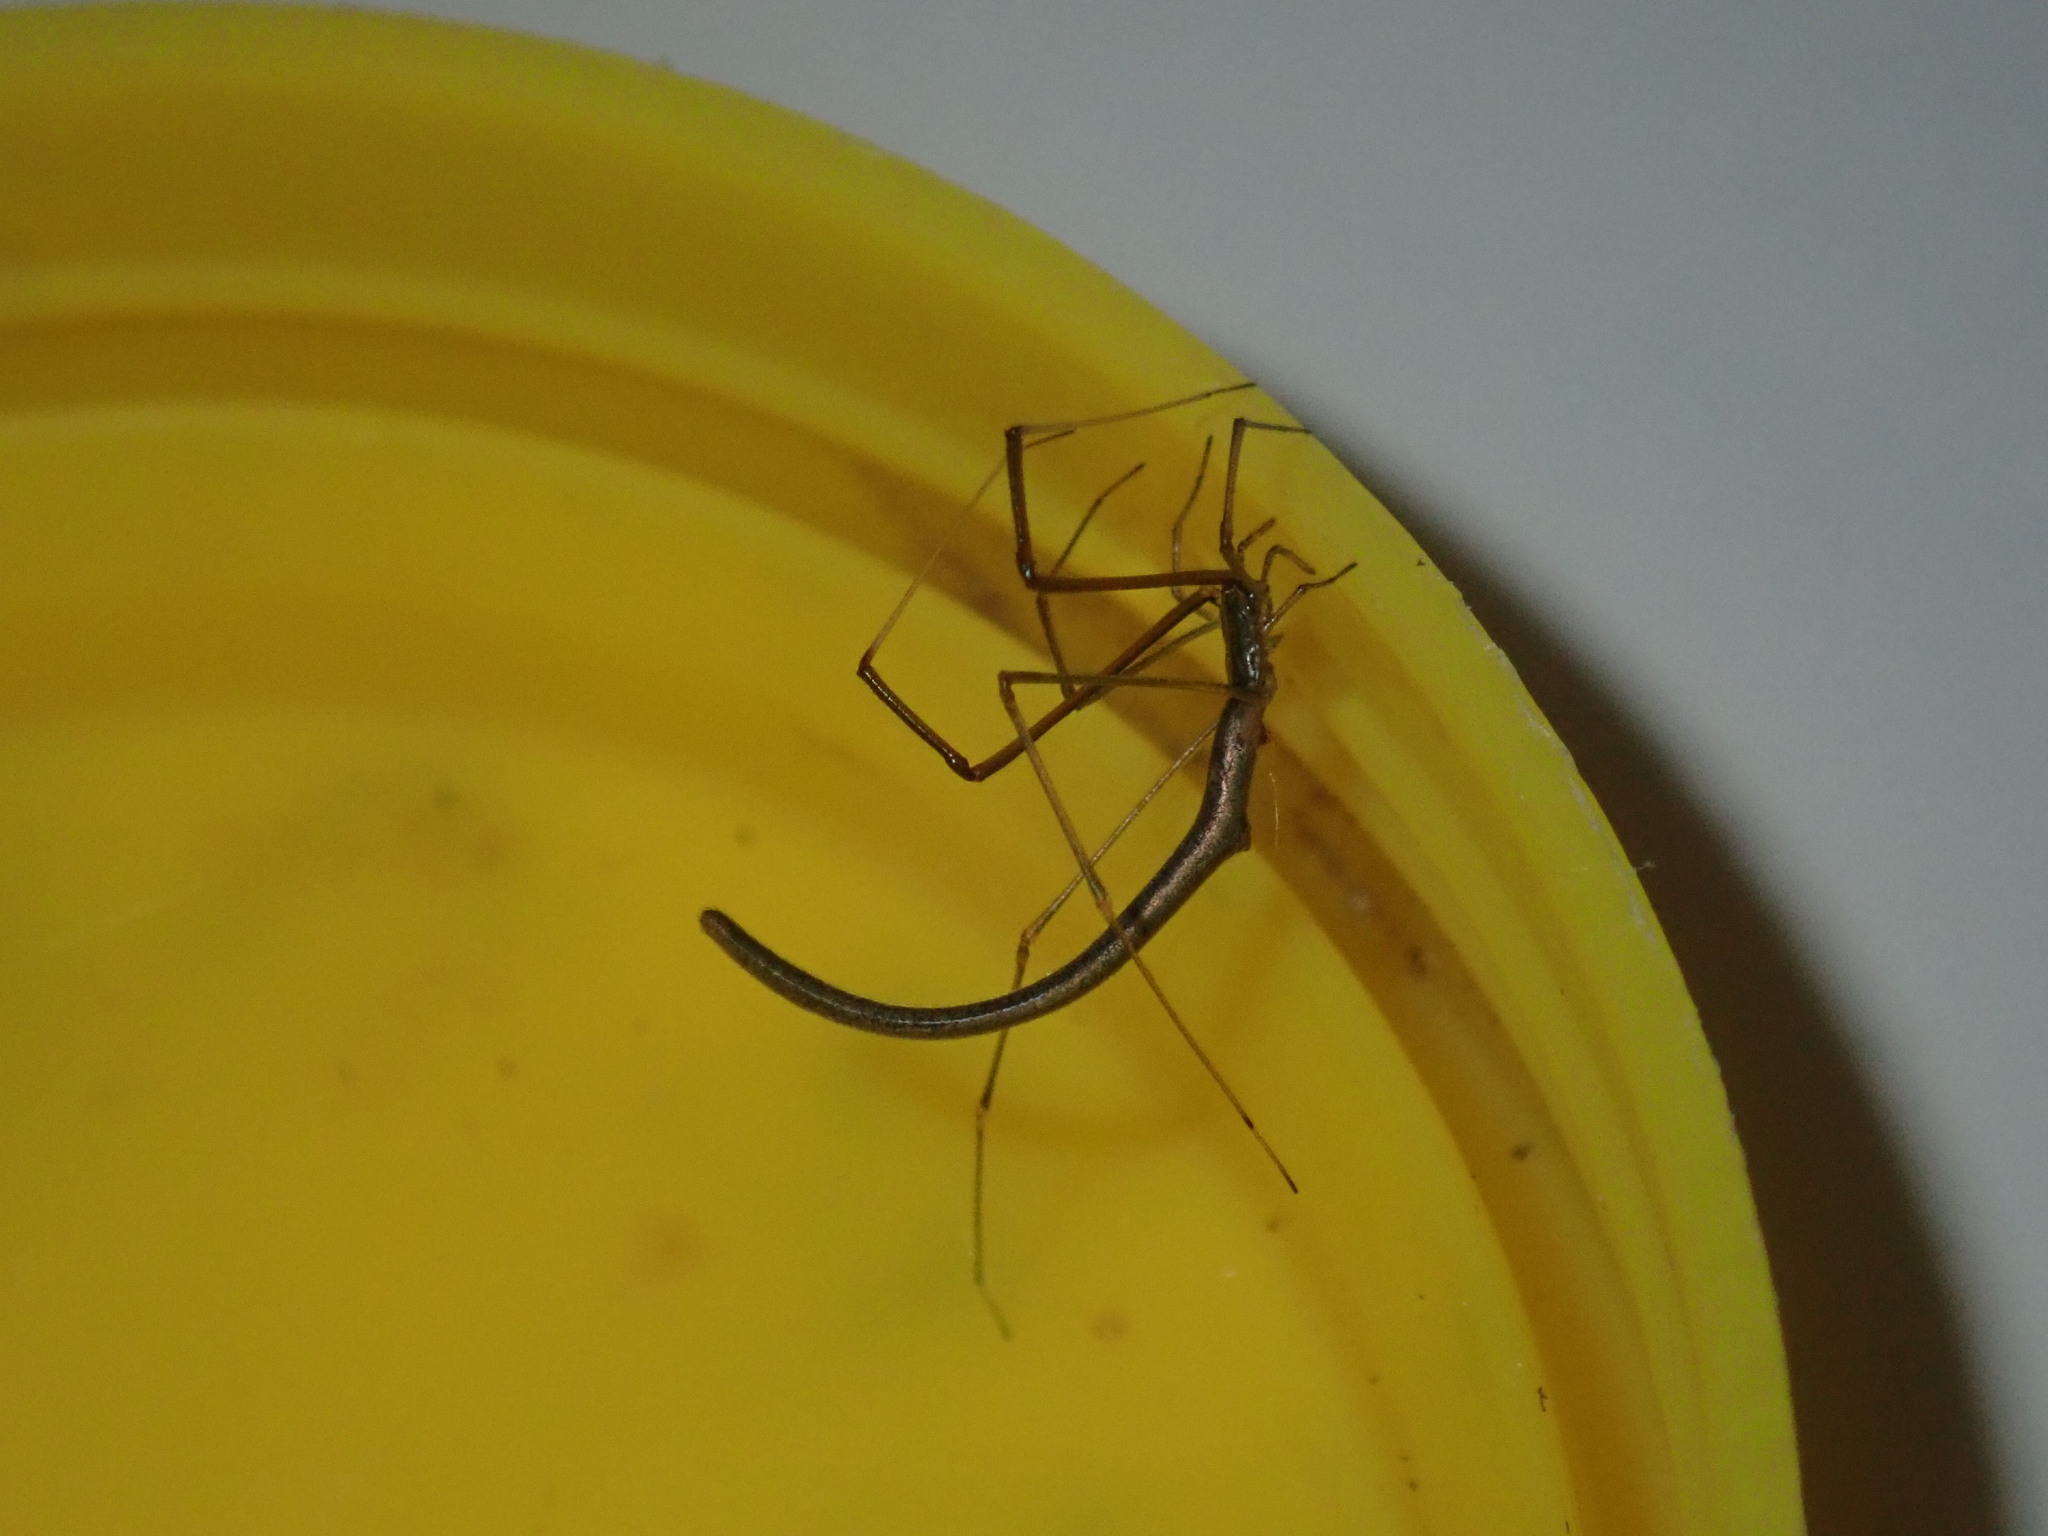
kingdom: Animalia
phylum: Arthropoda
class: Arachnida
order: Araneae
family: Theridiidae
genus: Ariamnes
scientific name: Ariamnes colubrinus
